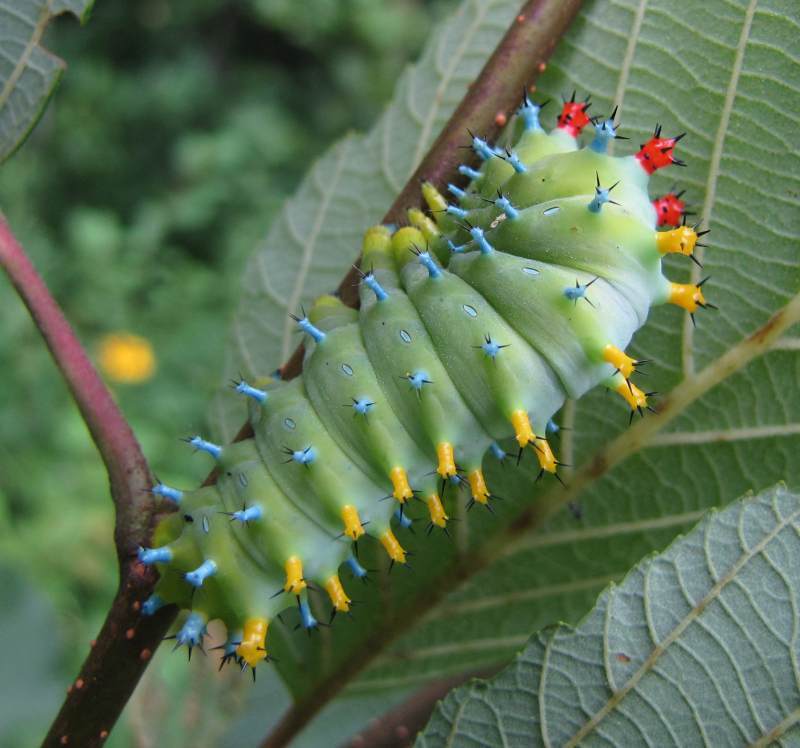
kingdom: Animalia
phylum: Arthropoda
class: Insecta
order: Lepidoptera
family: Saturniidae
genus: Hyalophora
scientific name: Hyalophora cecropia
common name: Cecropia silkmoth
